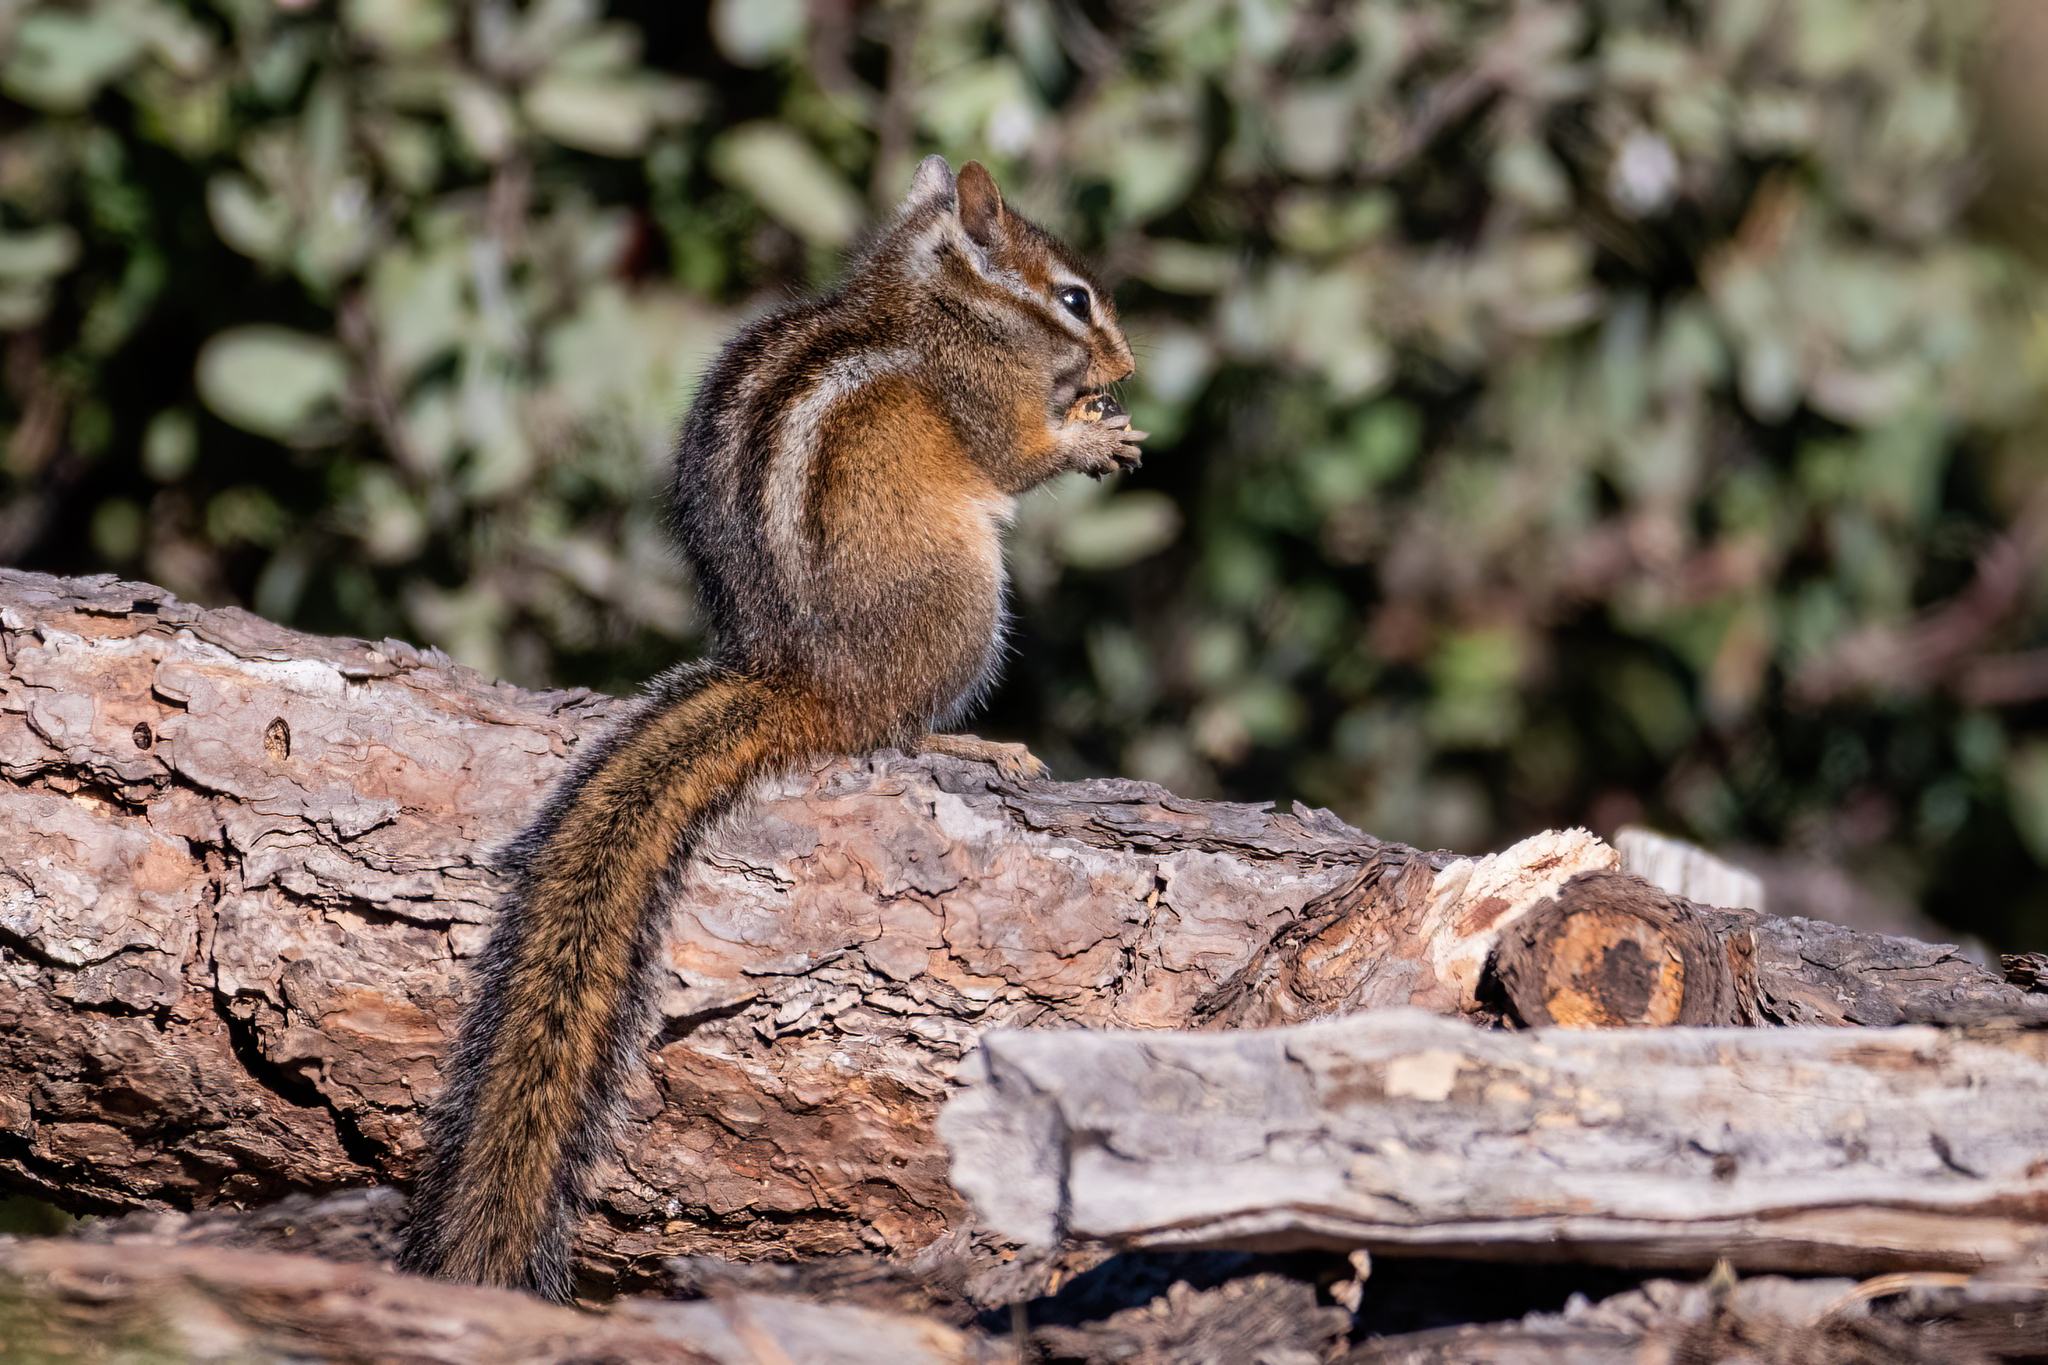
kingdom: Animalia
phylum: Chordata
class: Mammalia
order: Rodentia
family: Sciuridae
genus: Tamias
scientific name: Tamias merriami
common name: Merriam's chipmunk
